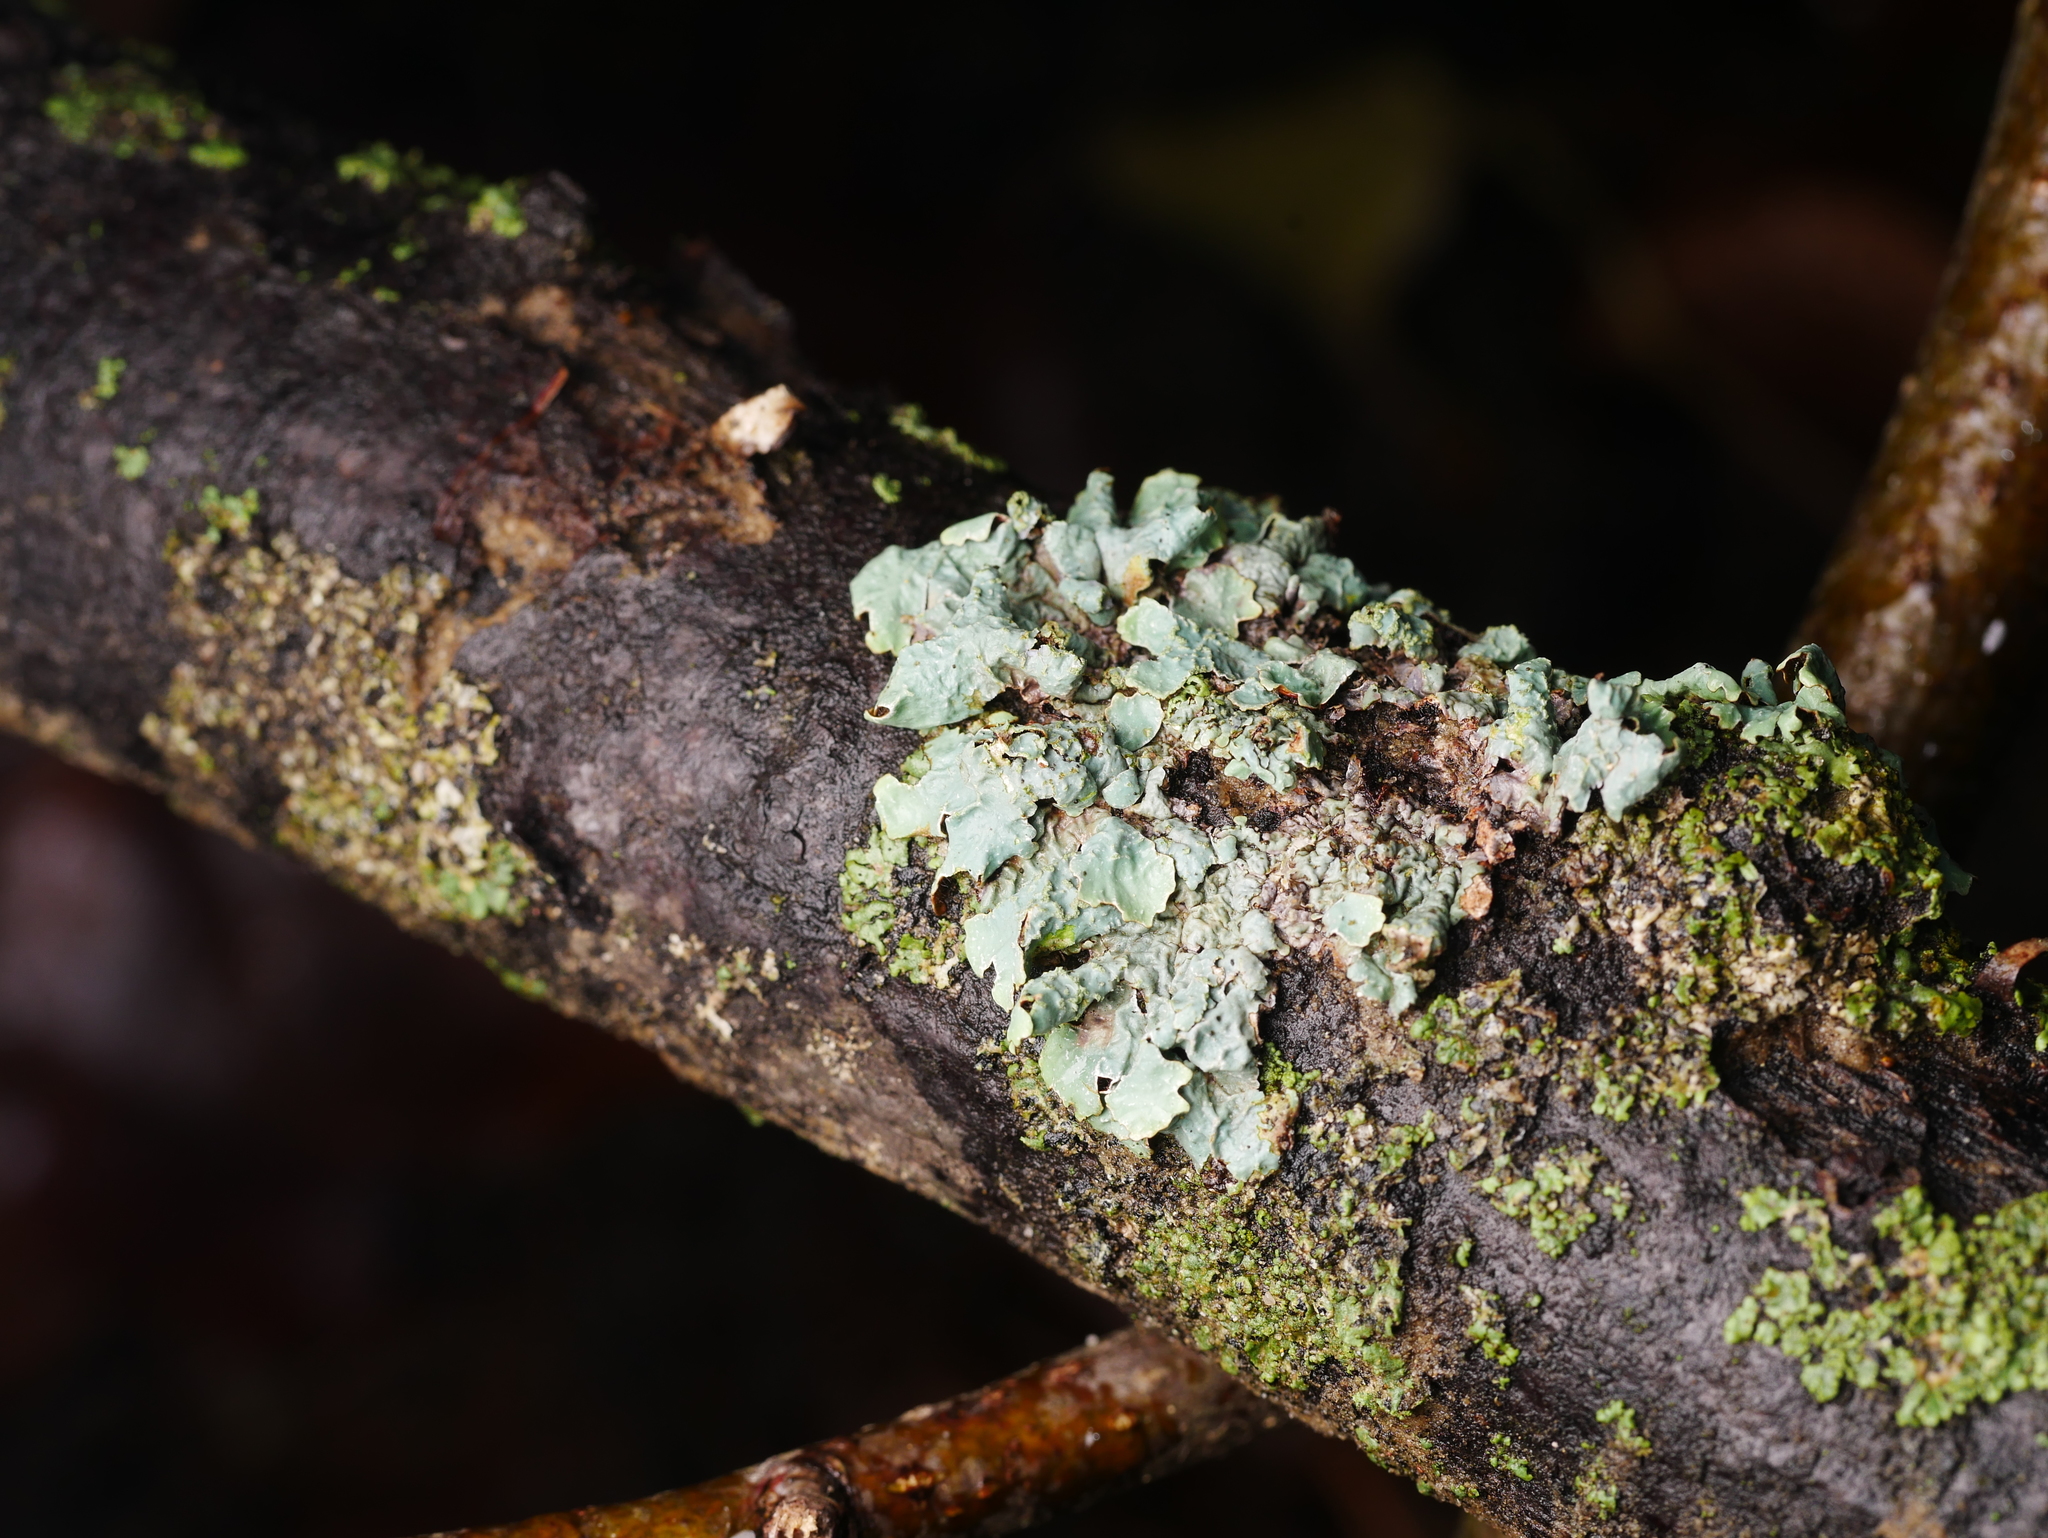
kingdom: Fungi
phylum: Ascomycota
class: Lecanoromycetes
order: Lecanorales
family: Parmeliaceae
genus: Parmelia
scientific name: Parmelia sulcata
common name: Netted shield lichen
